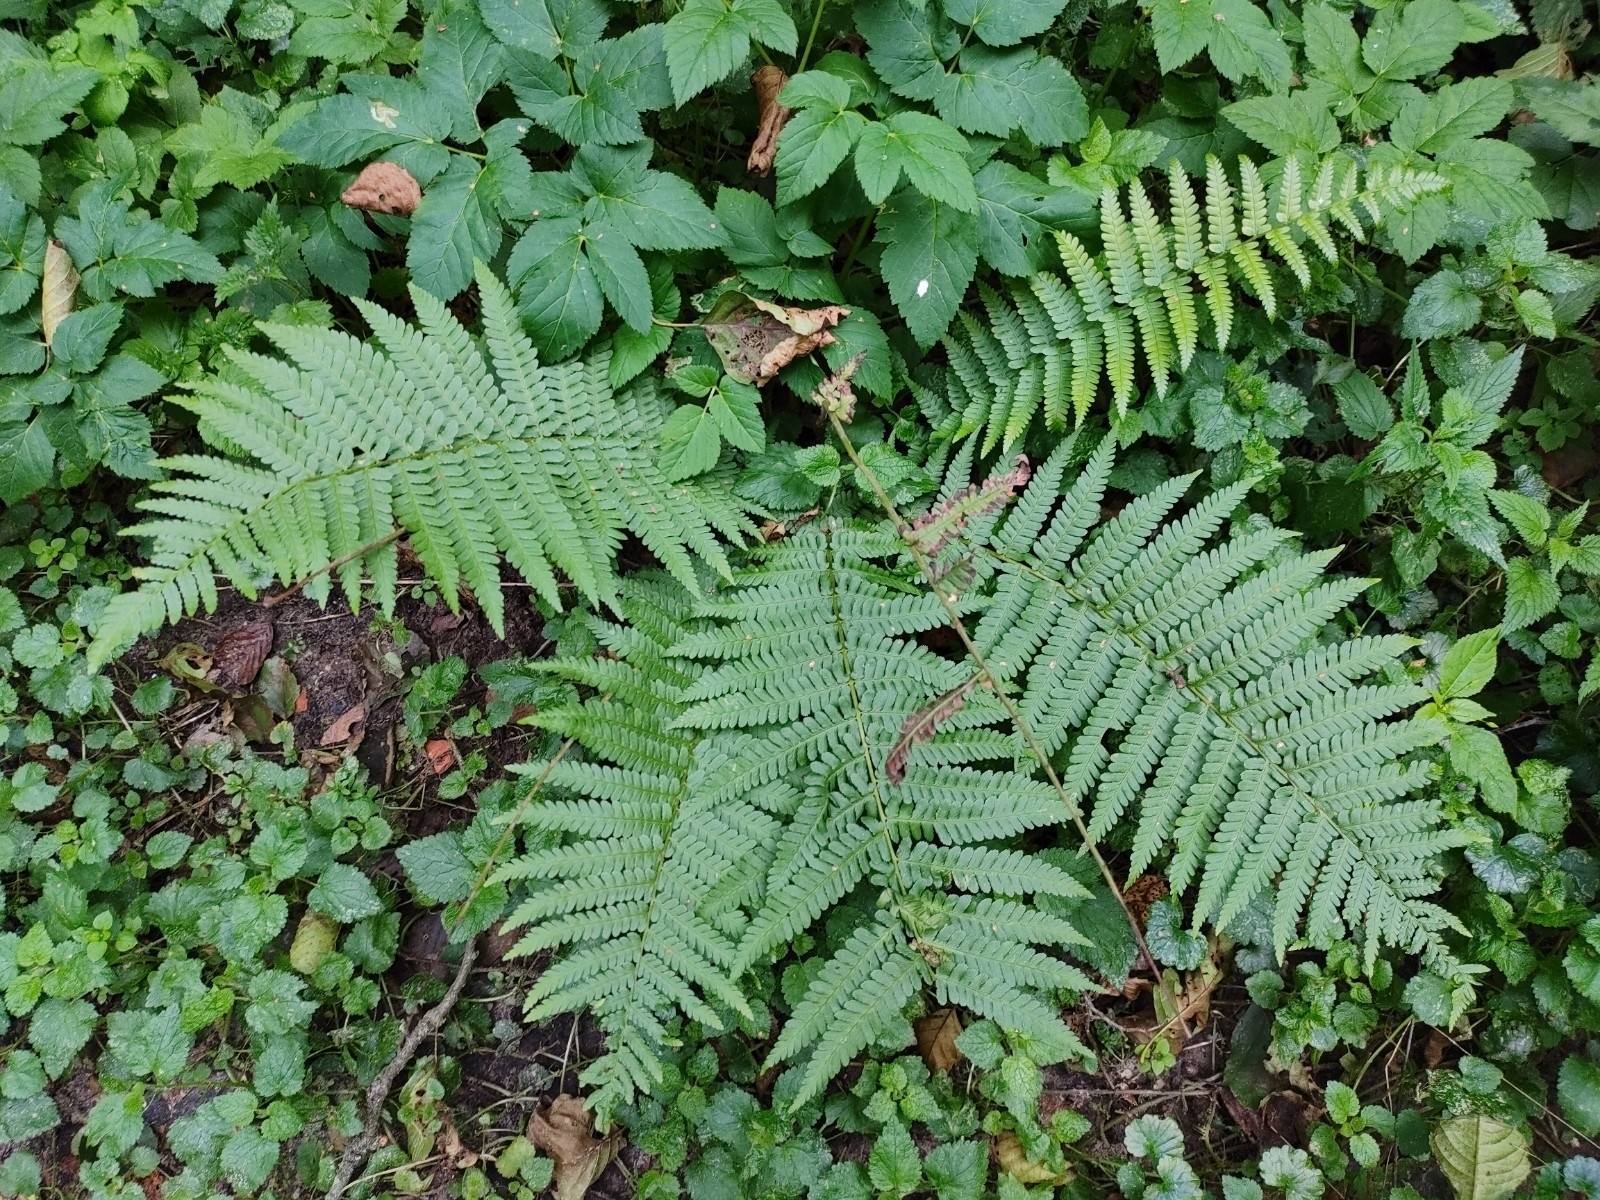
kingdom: Plantae
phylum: Tracheophyta
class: Polypodiopsida
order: Polypodiales
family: Dryopteridaceae
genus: Dryopteris
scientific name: Dryopteris filix-mas
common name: Male fern
